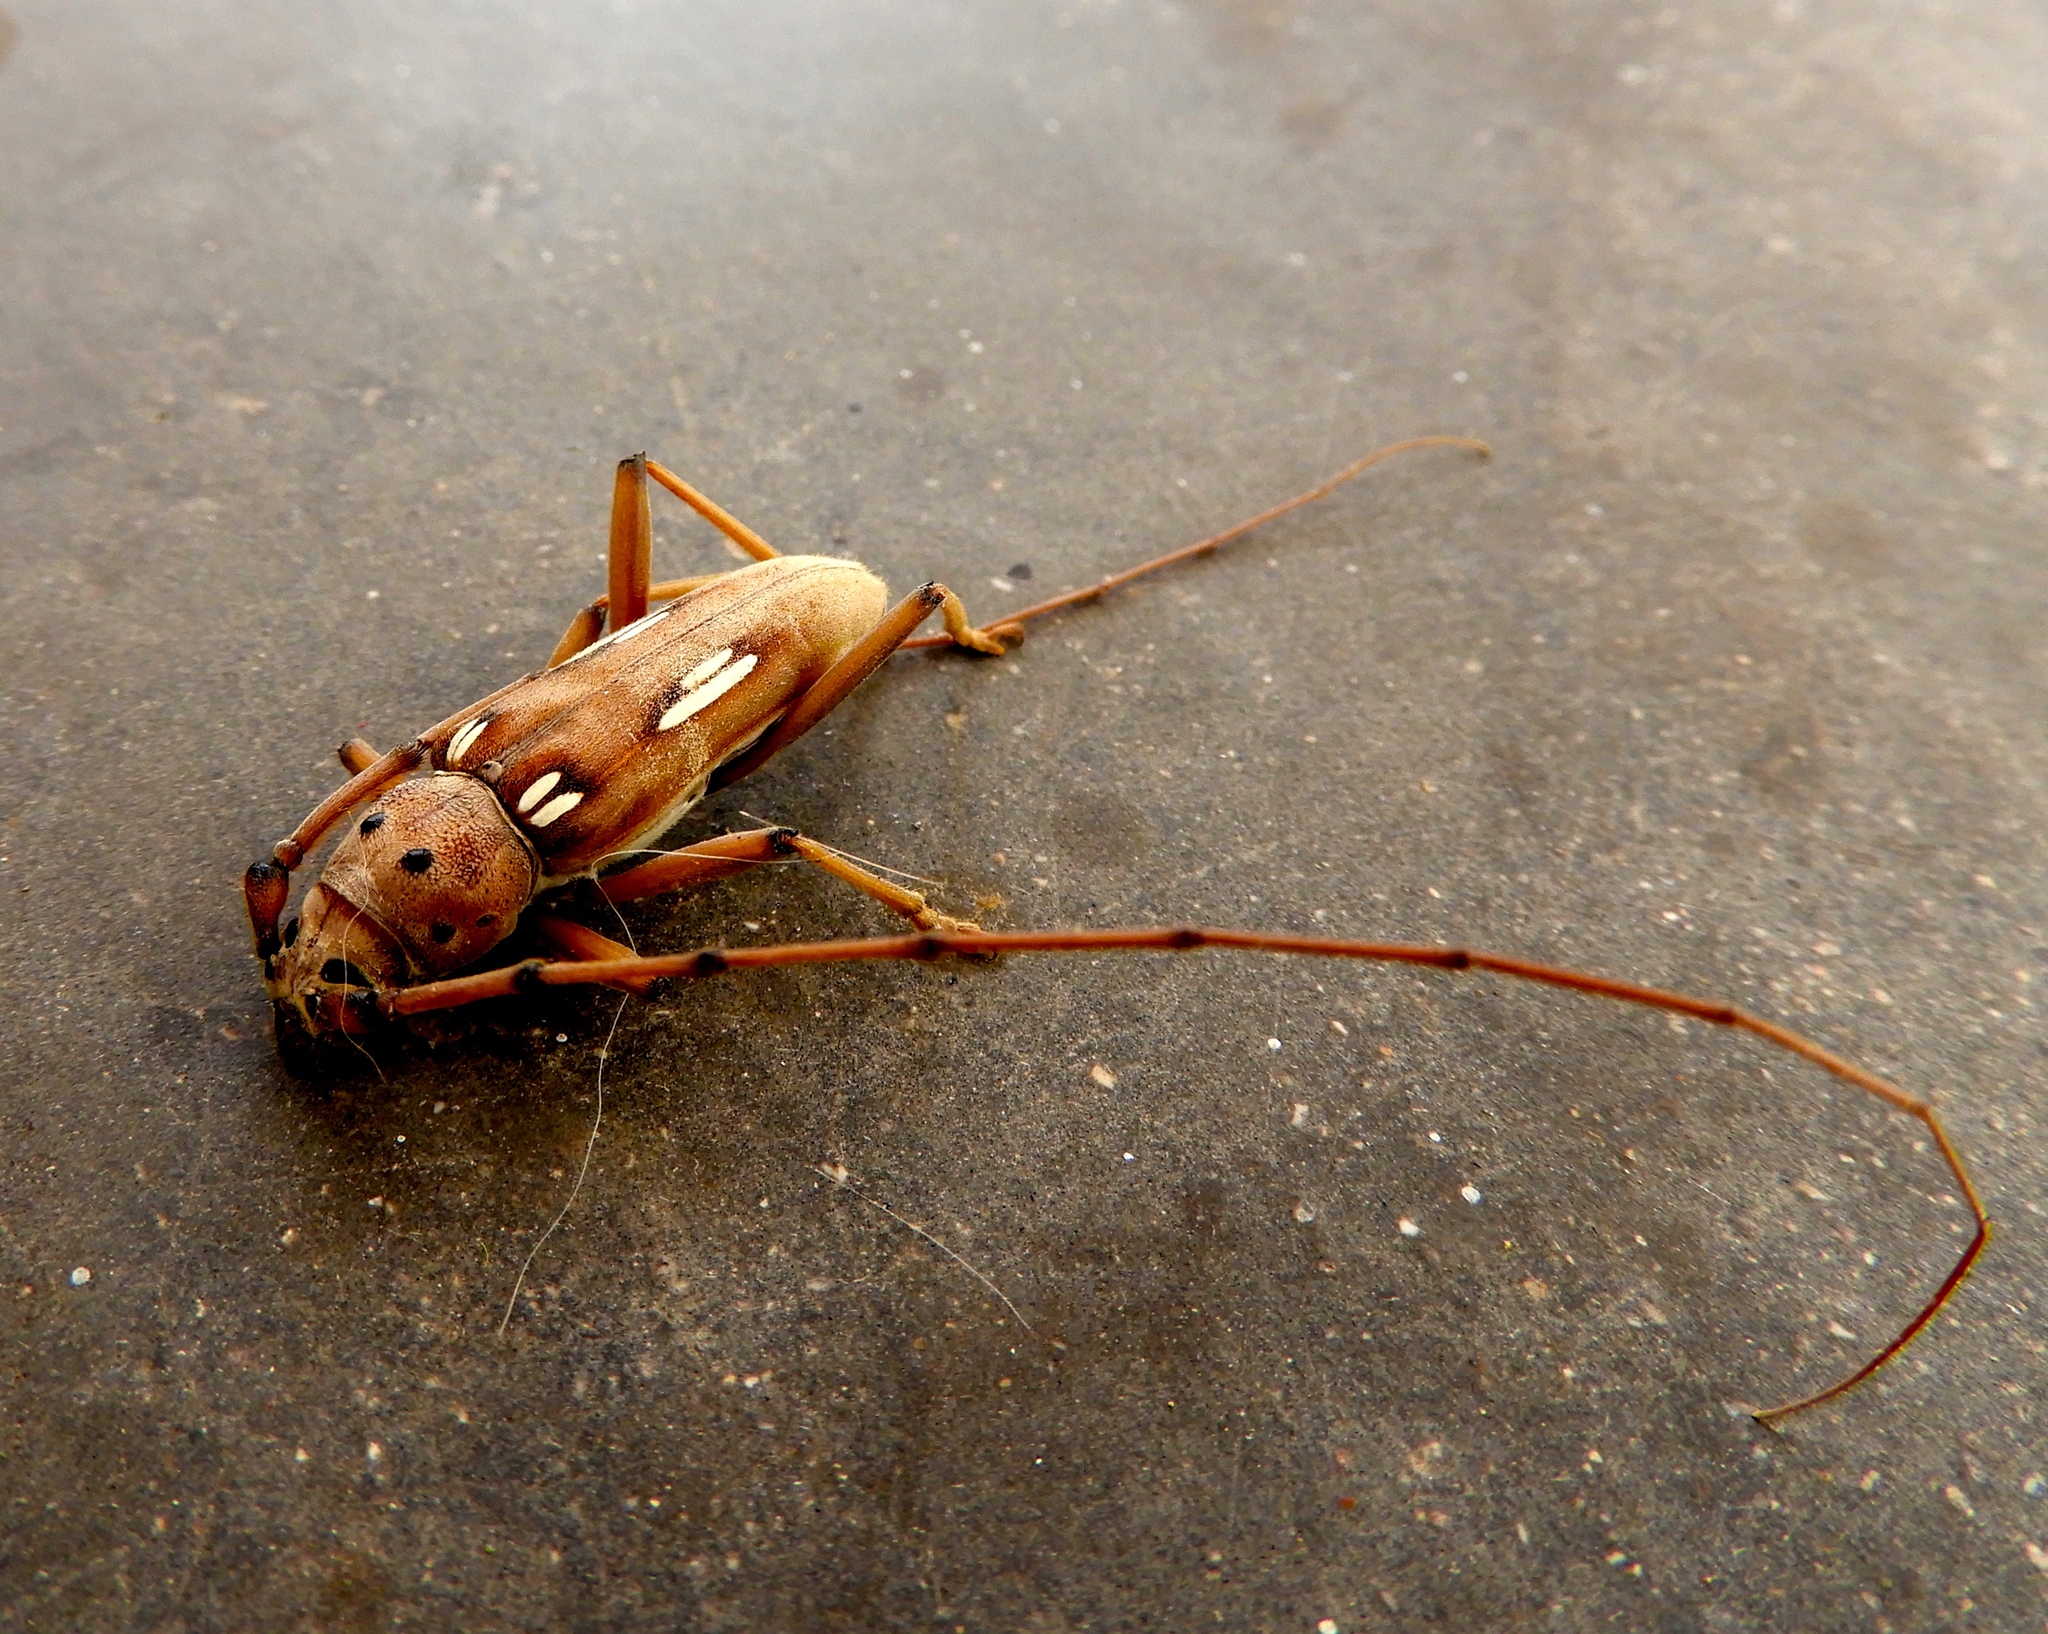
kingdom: Animalia
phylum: Arthropoda
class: Insecta
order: Coleoptera
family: Cerambycidae
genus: Eburia
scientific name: Eburia laticollis
